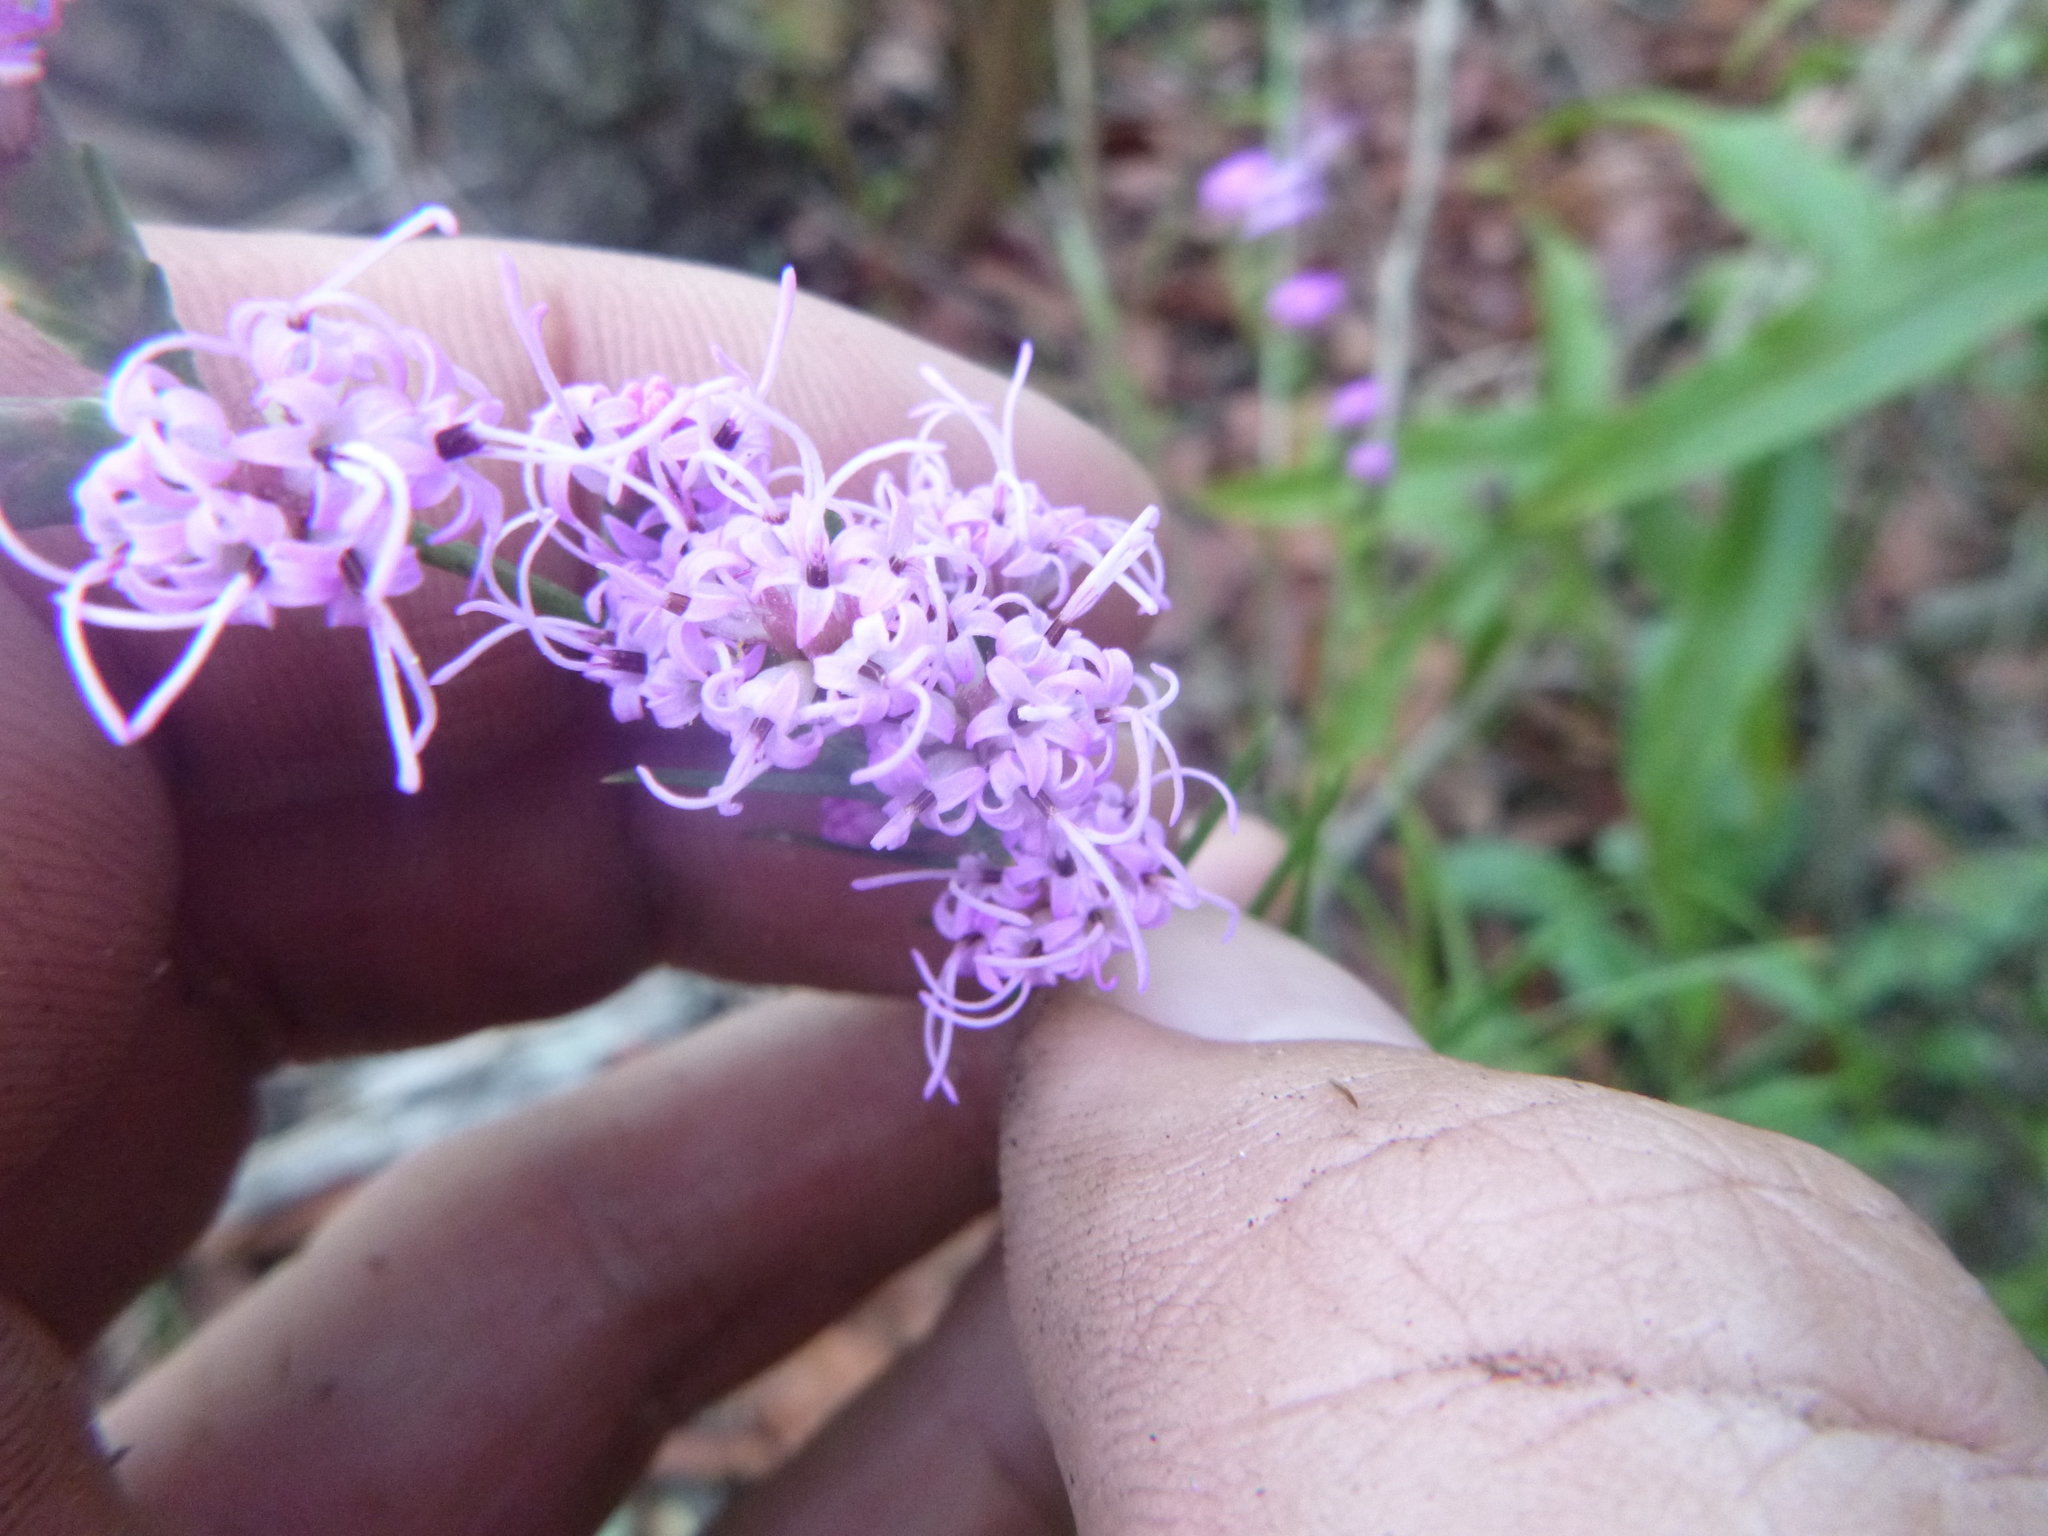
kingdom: Plantae
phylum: Tracheophyta
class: Magnoliopsida
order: Asterales
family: Asteraceae
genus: Liatris
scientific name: Liatris virgata
